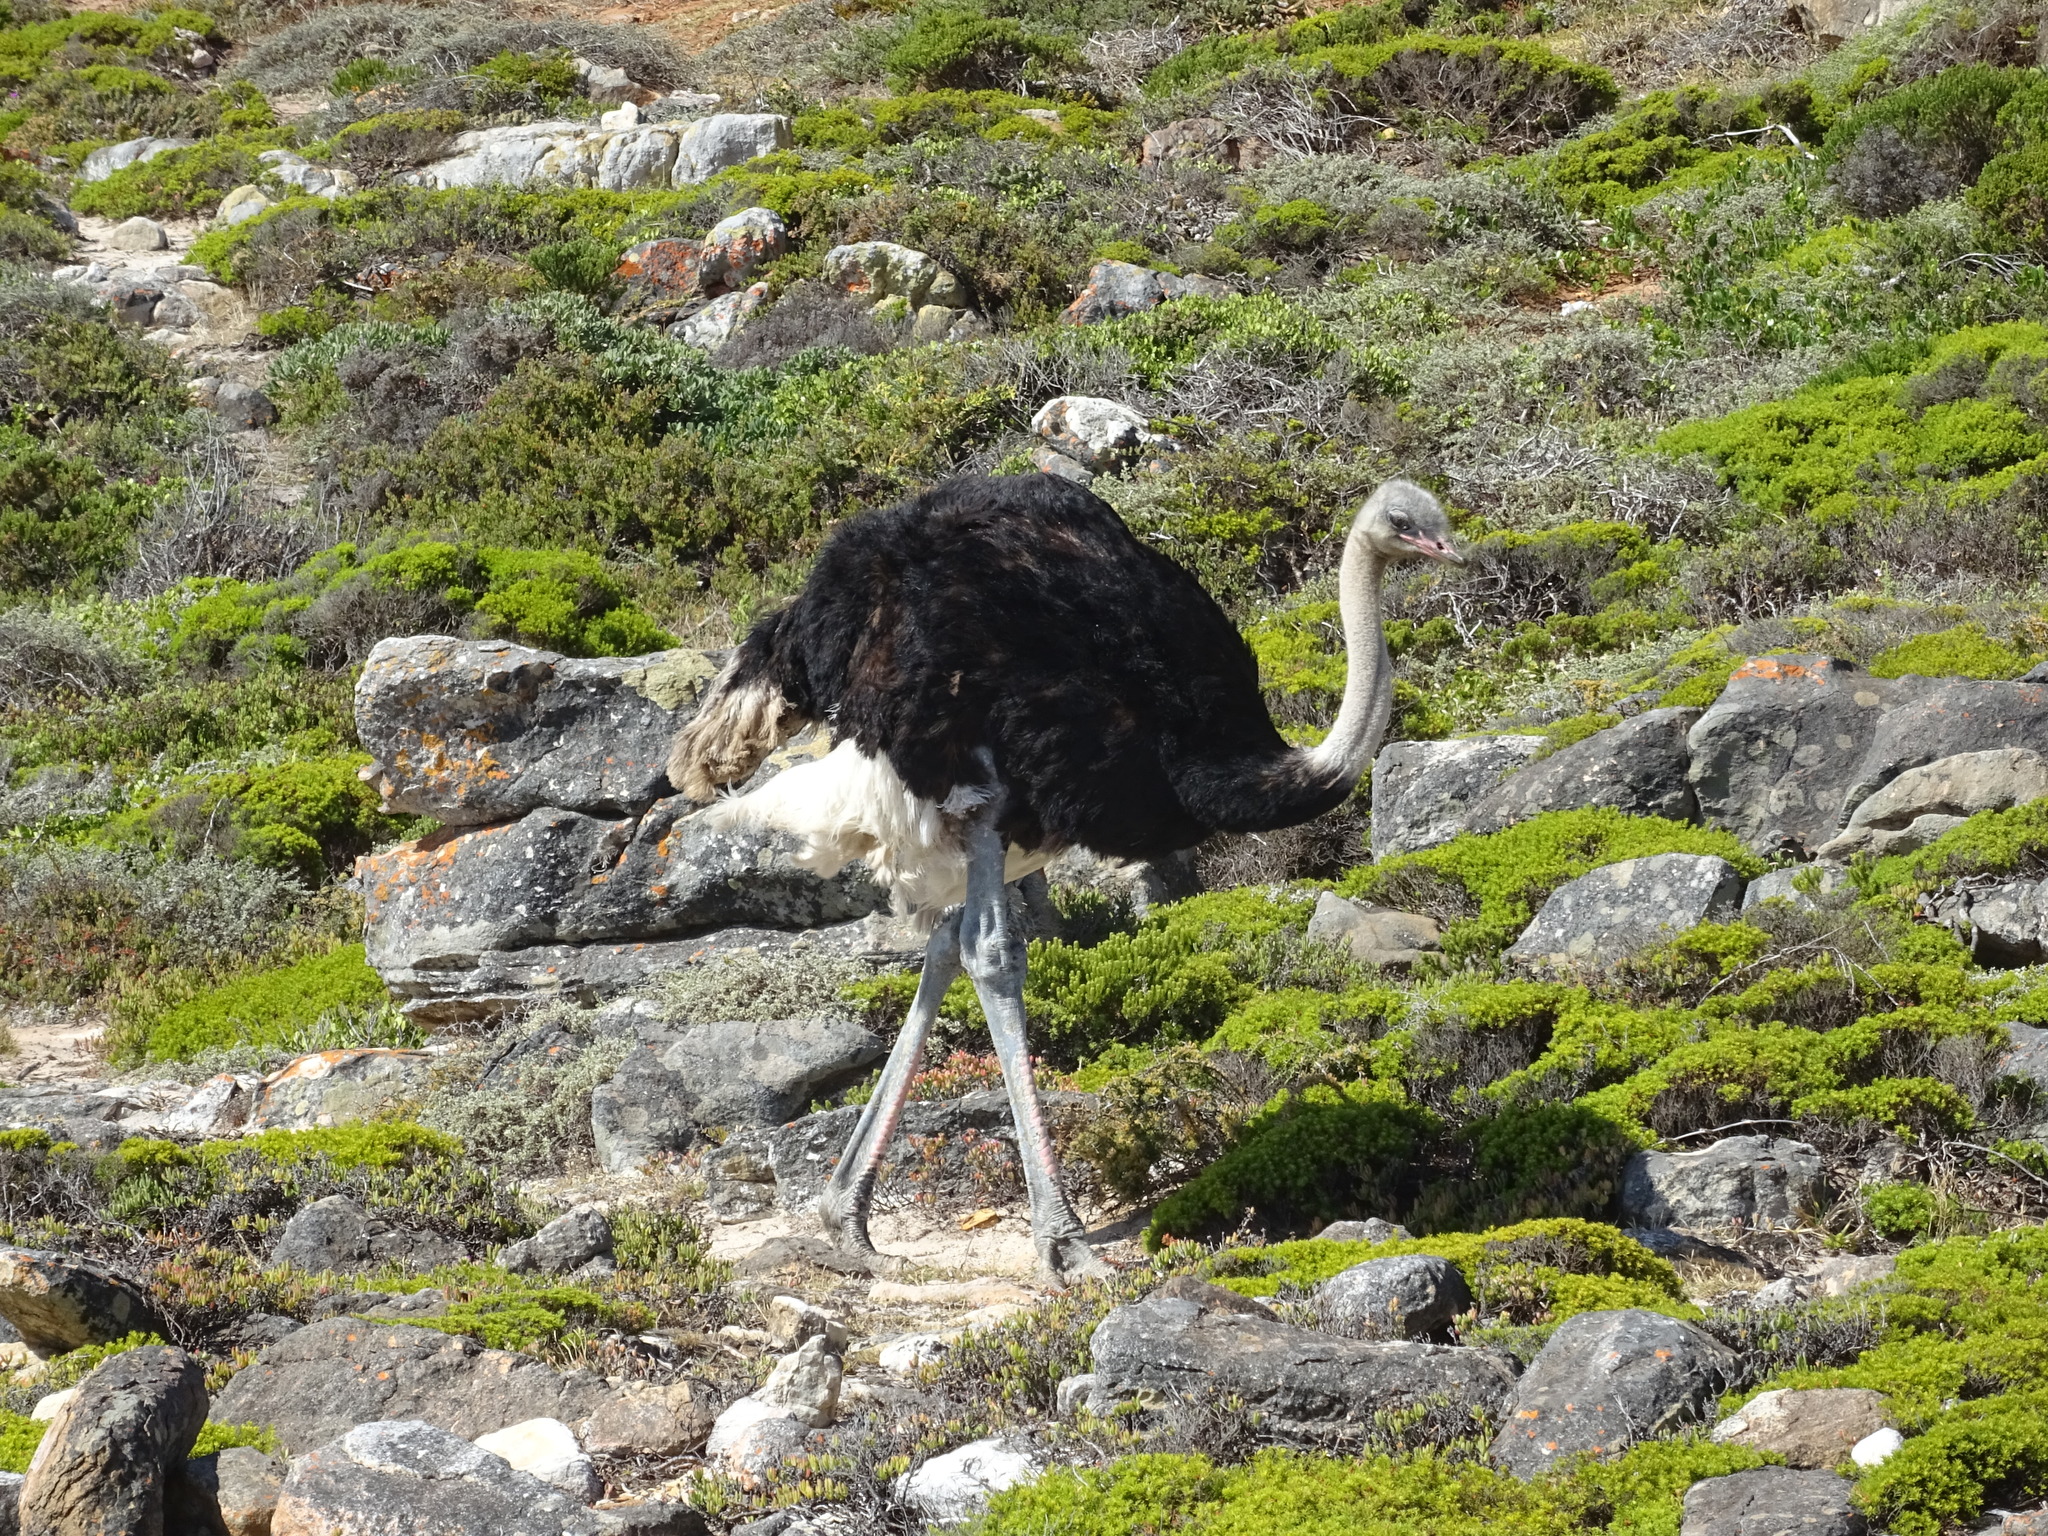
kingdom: Animalia
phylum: Chordata
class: Aves
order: Struthioniformes
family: Struthionidae
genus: Struthio
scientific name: Struthio camelus
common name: Common ostrich
